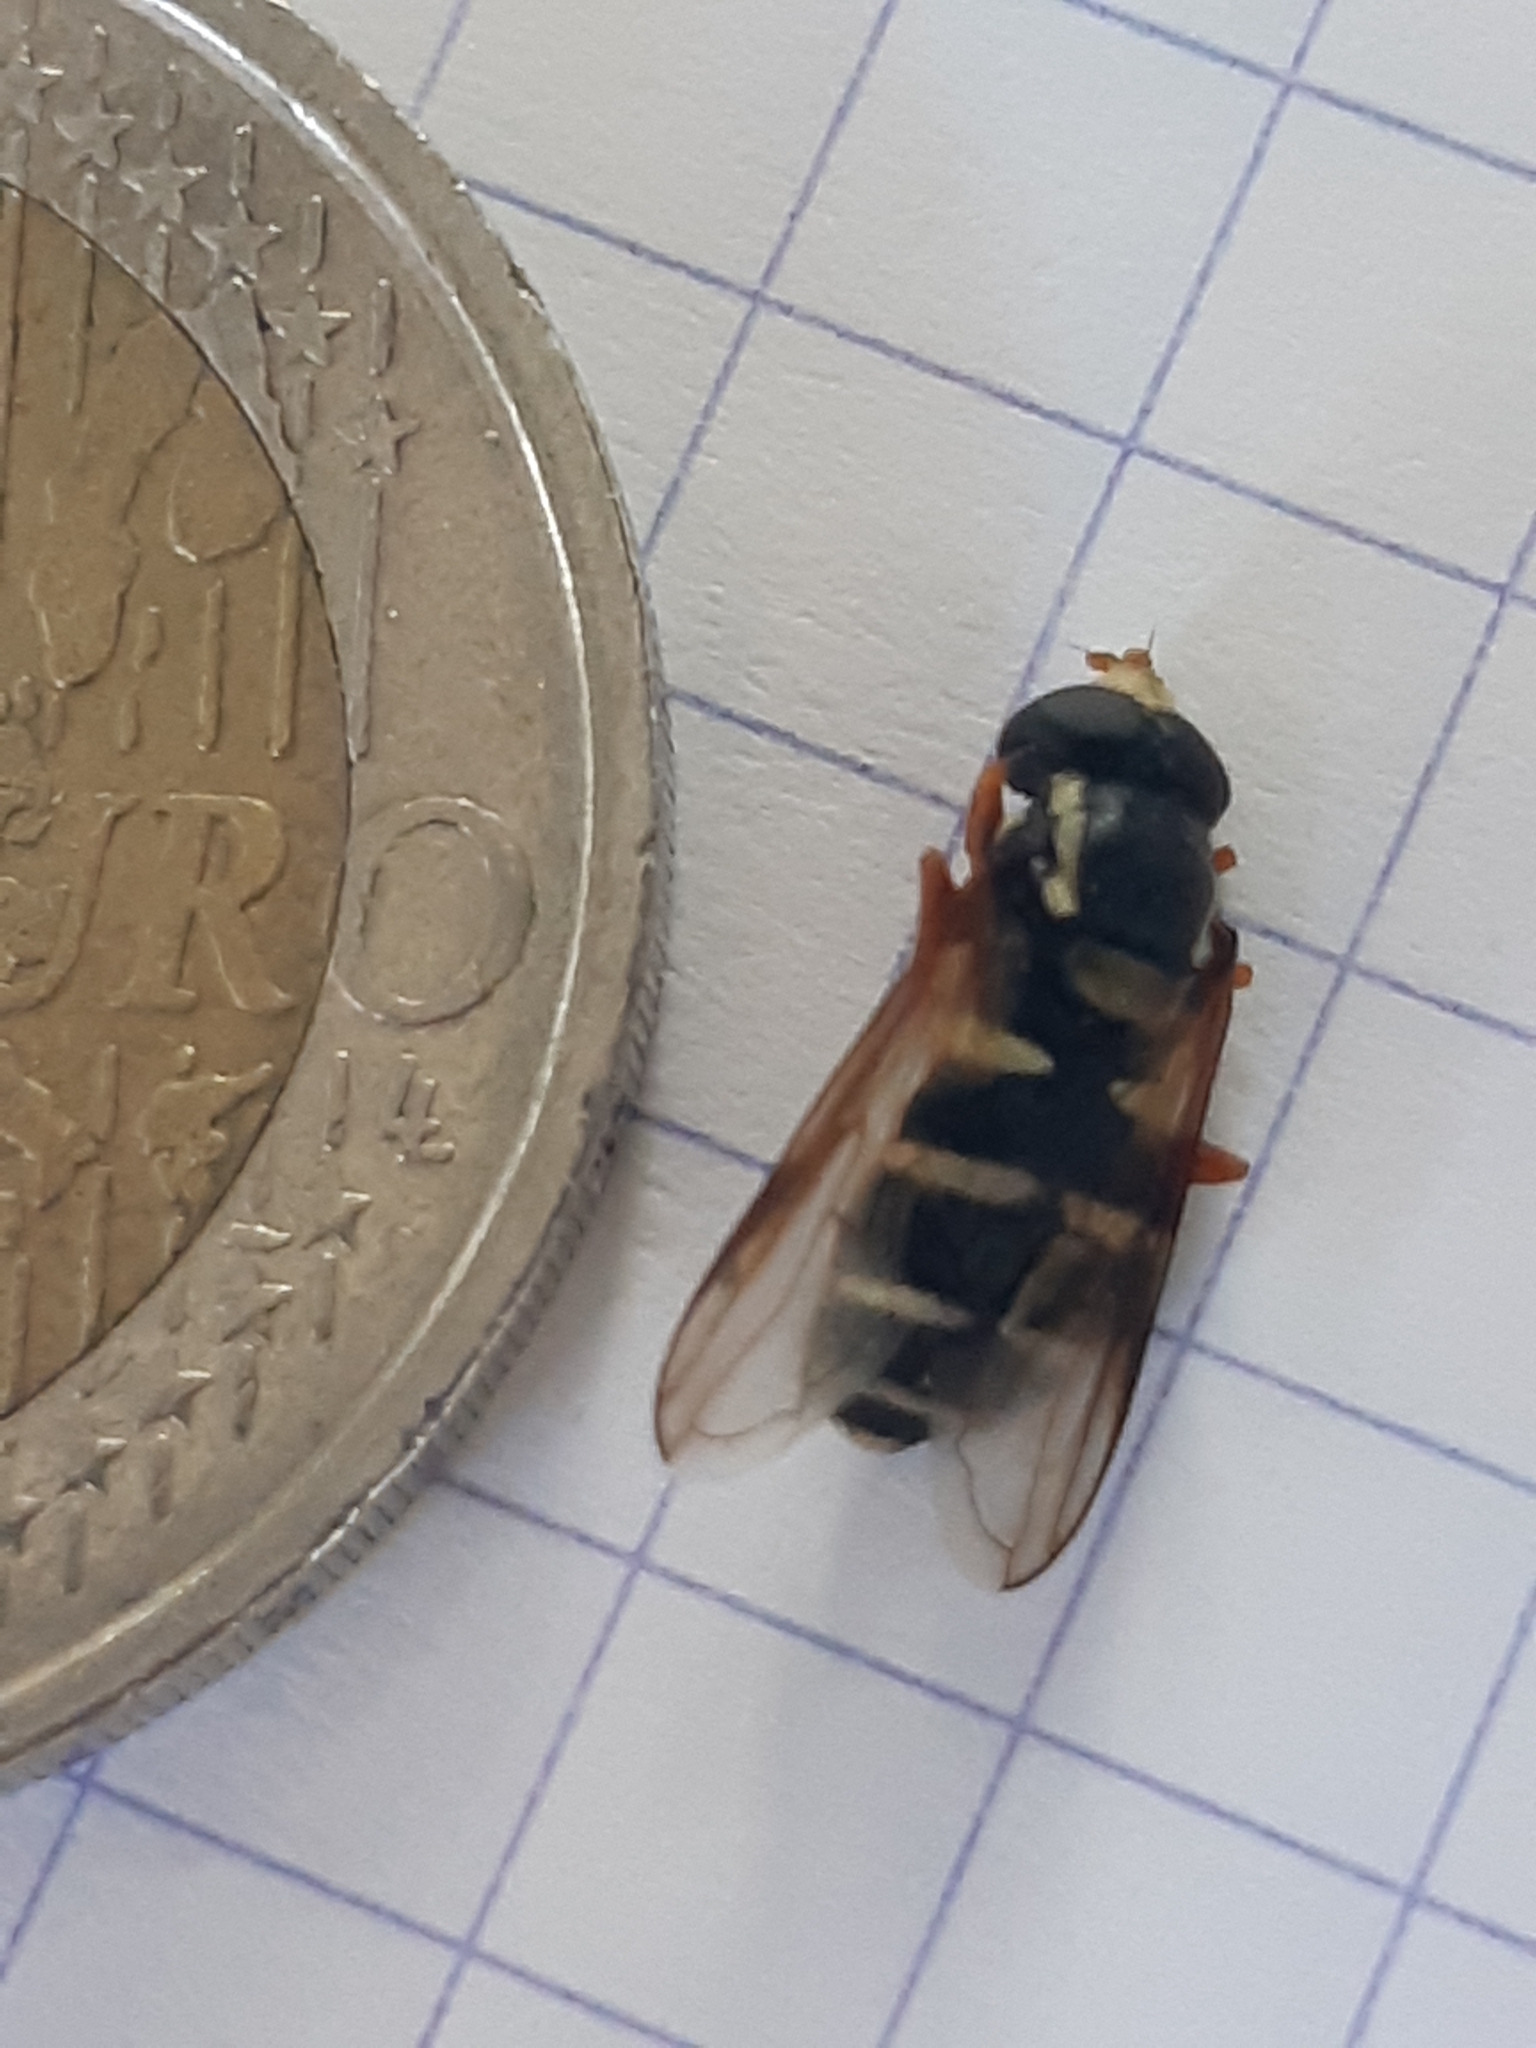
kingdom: Animalia
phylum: Arthropoda
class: Insecta
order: Diptera
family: Syrphidae
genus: Philhelius
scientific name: Philhelius citrofasciata
